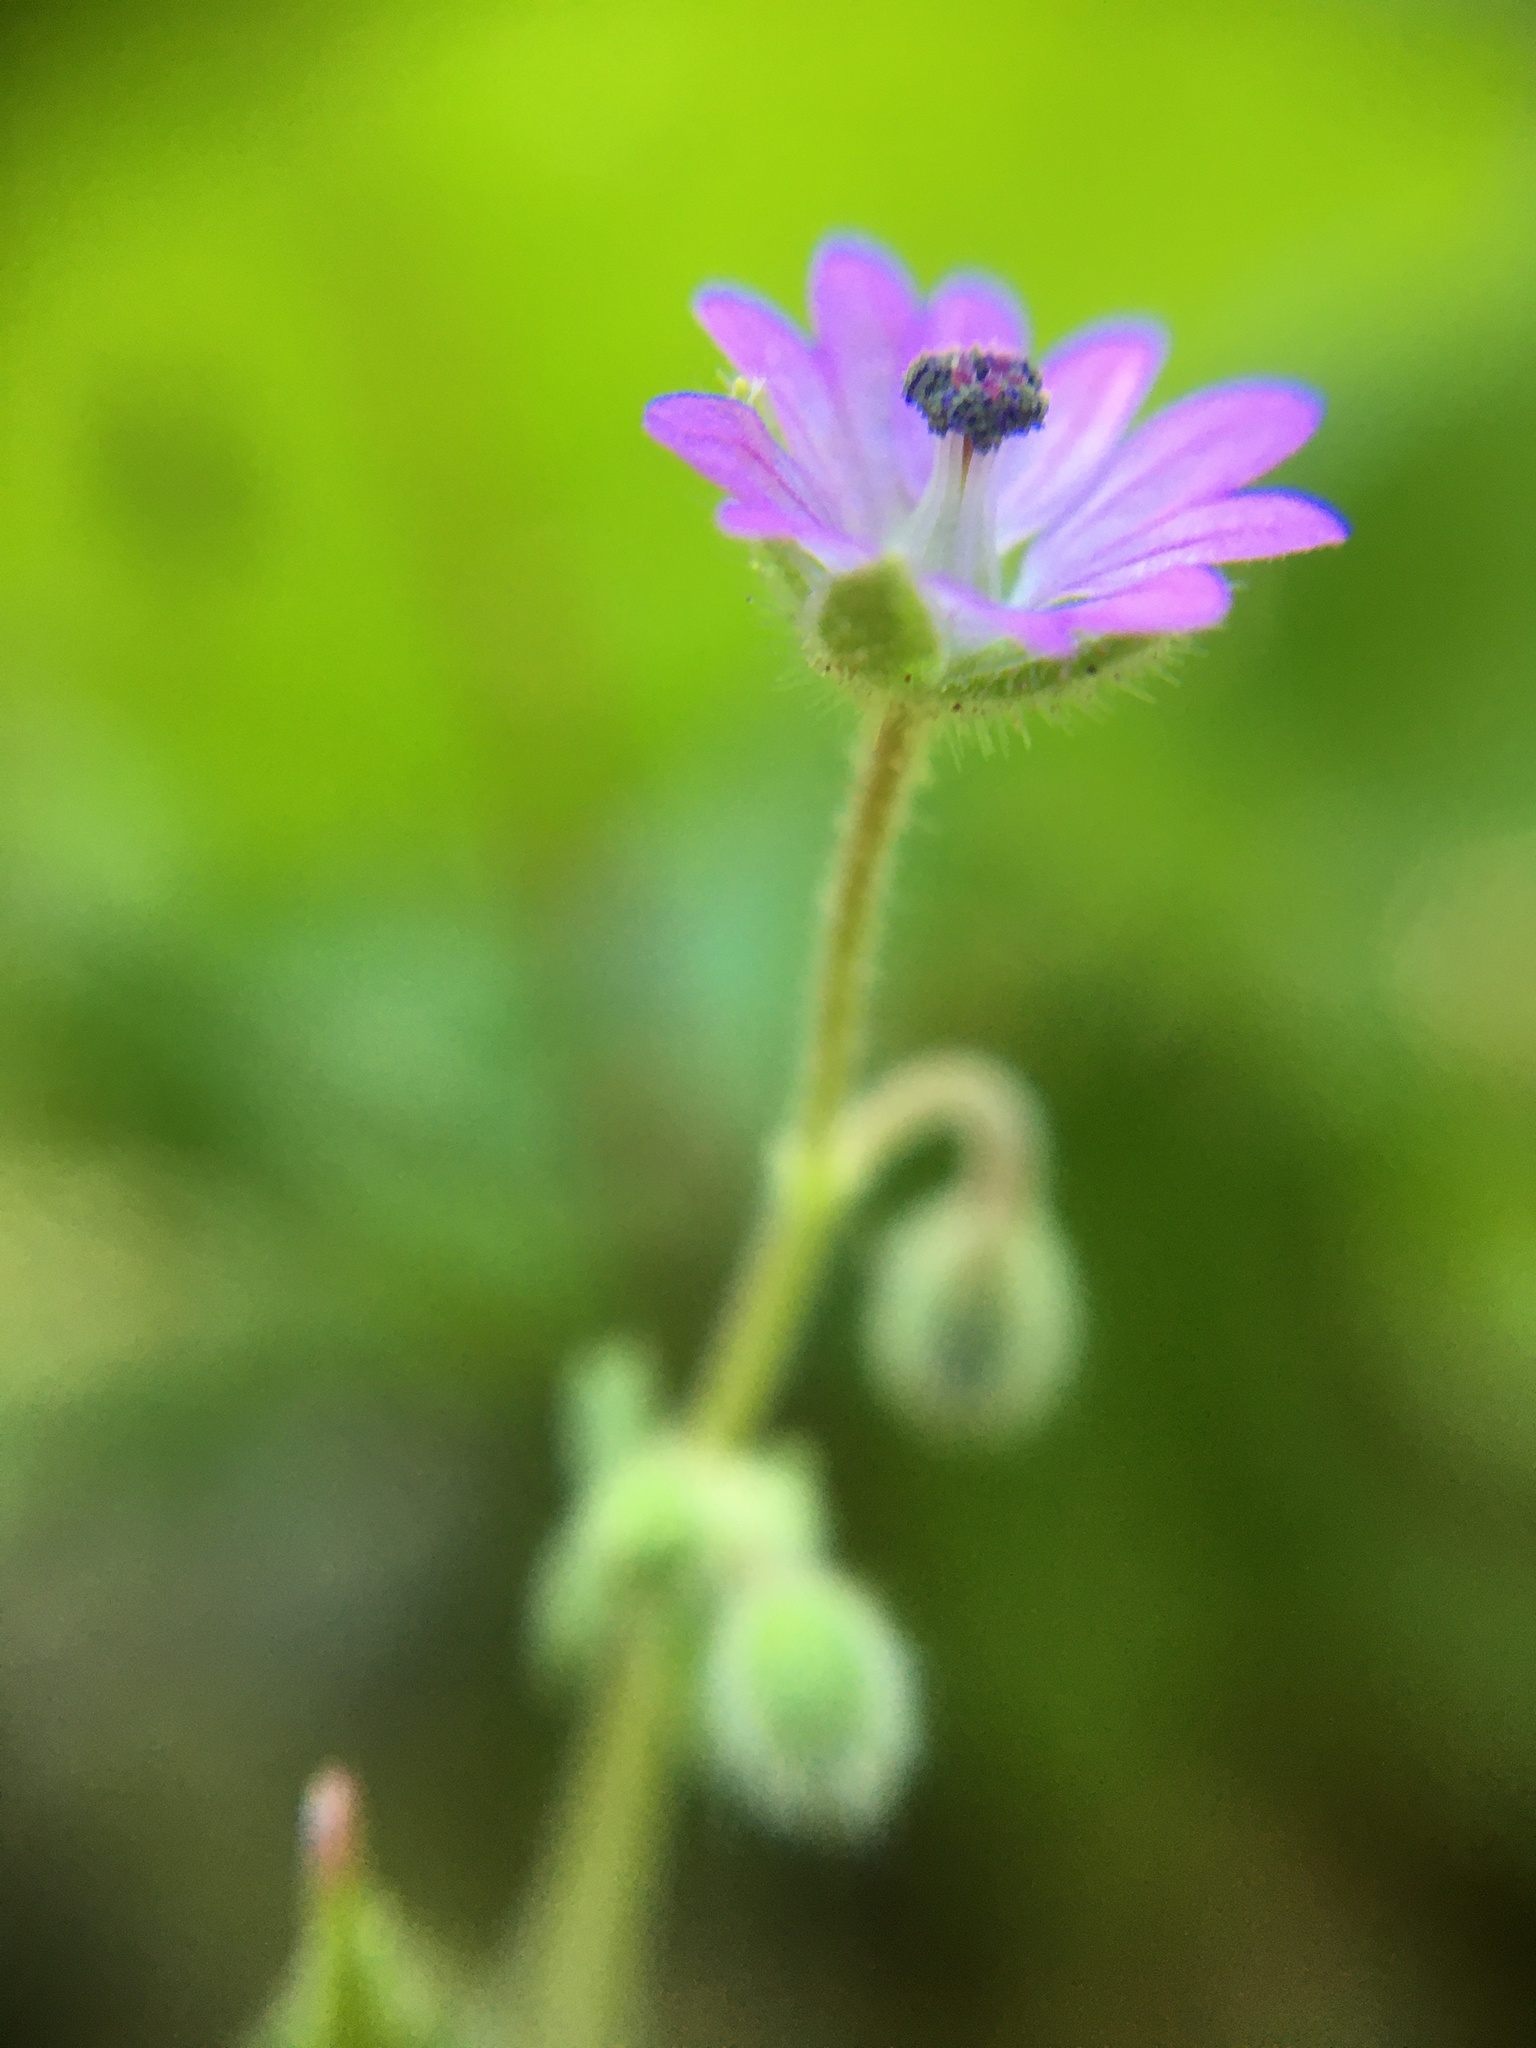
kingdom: Plantae
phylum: Tracheophyta
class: Magnoliopsida
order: Geraniales
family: Geraniaceae
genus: Geranium
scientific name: Geranium molle
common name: Dove's-foot crane's-bill
